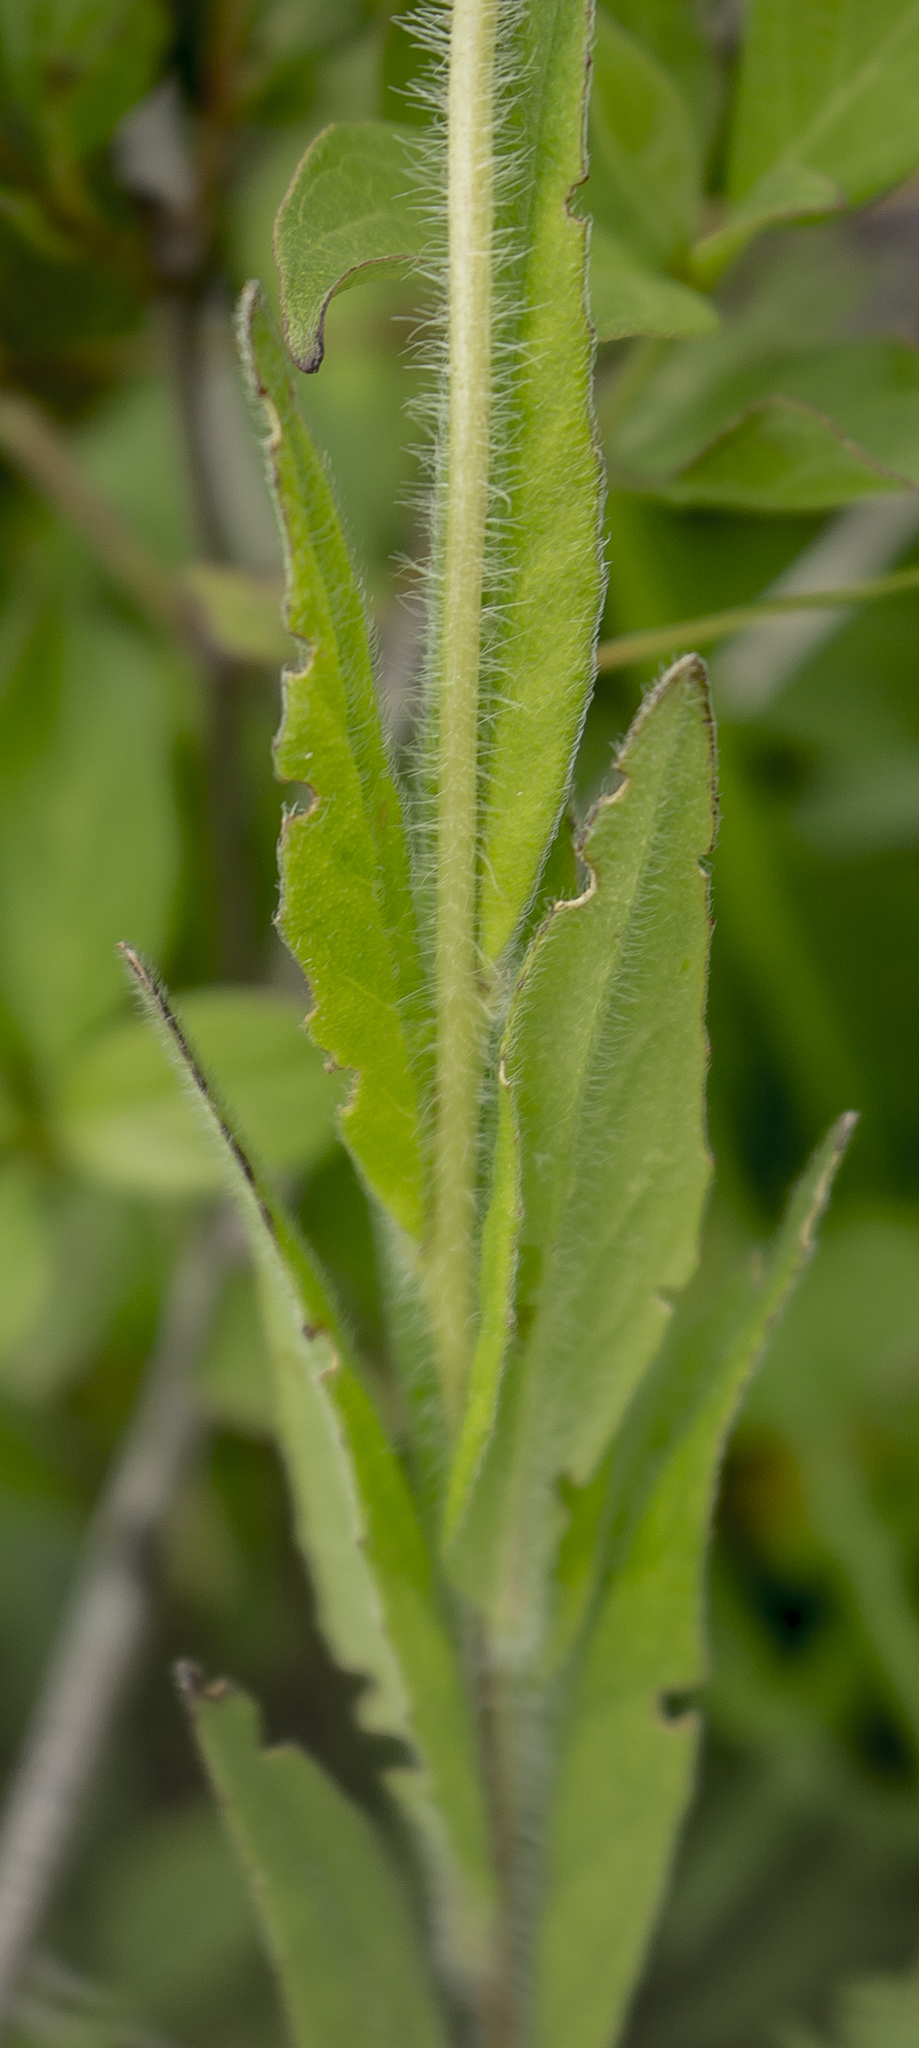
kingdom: Plantae
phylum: Tracheophyta
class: Magnoliopsida
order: Myrtales
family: Onagraceae
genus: Oenothera
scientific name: Oenothera pilosella
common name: Finely-pilose evening-primrose
